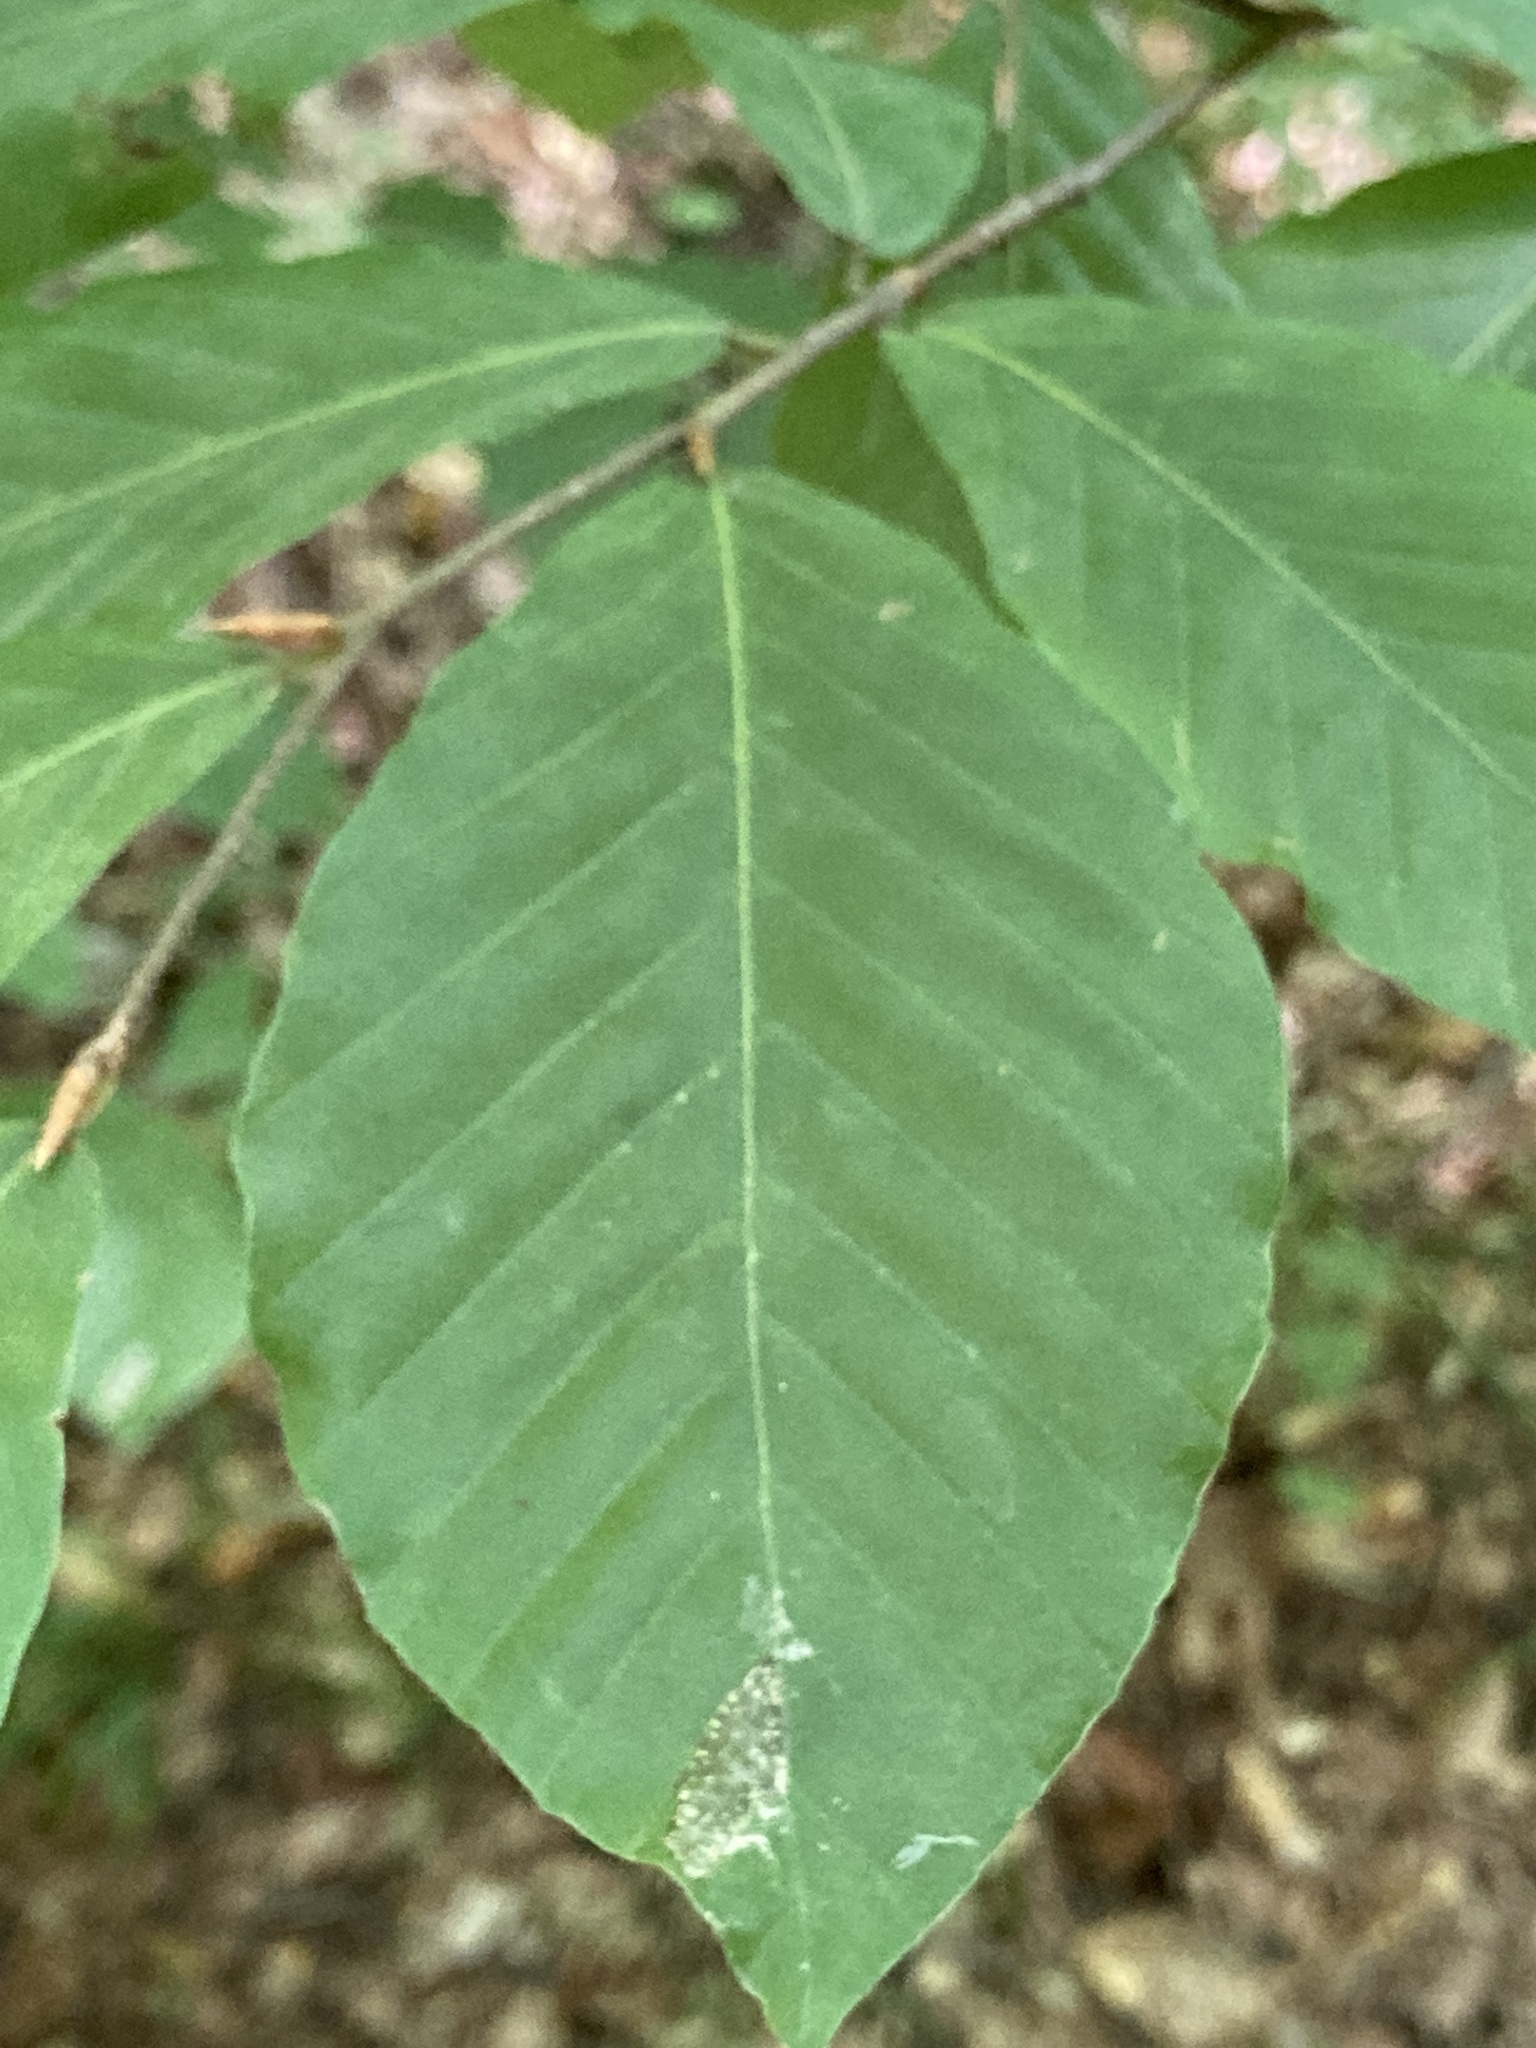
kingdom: Plantae
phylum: Tracheophyta
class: Magnoliopsida
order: Fagales
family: Fagaceae
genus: Fagus
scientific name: Fagus orientalis
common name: Oriental beech
